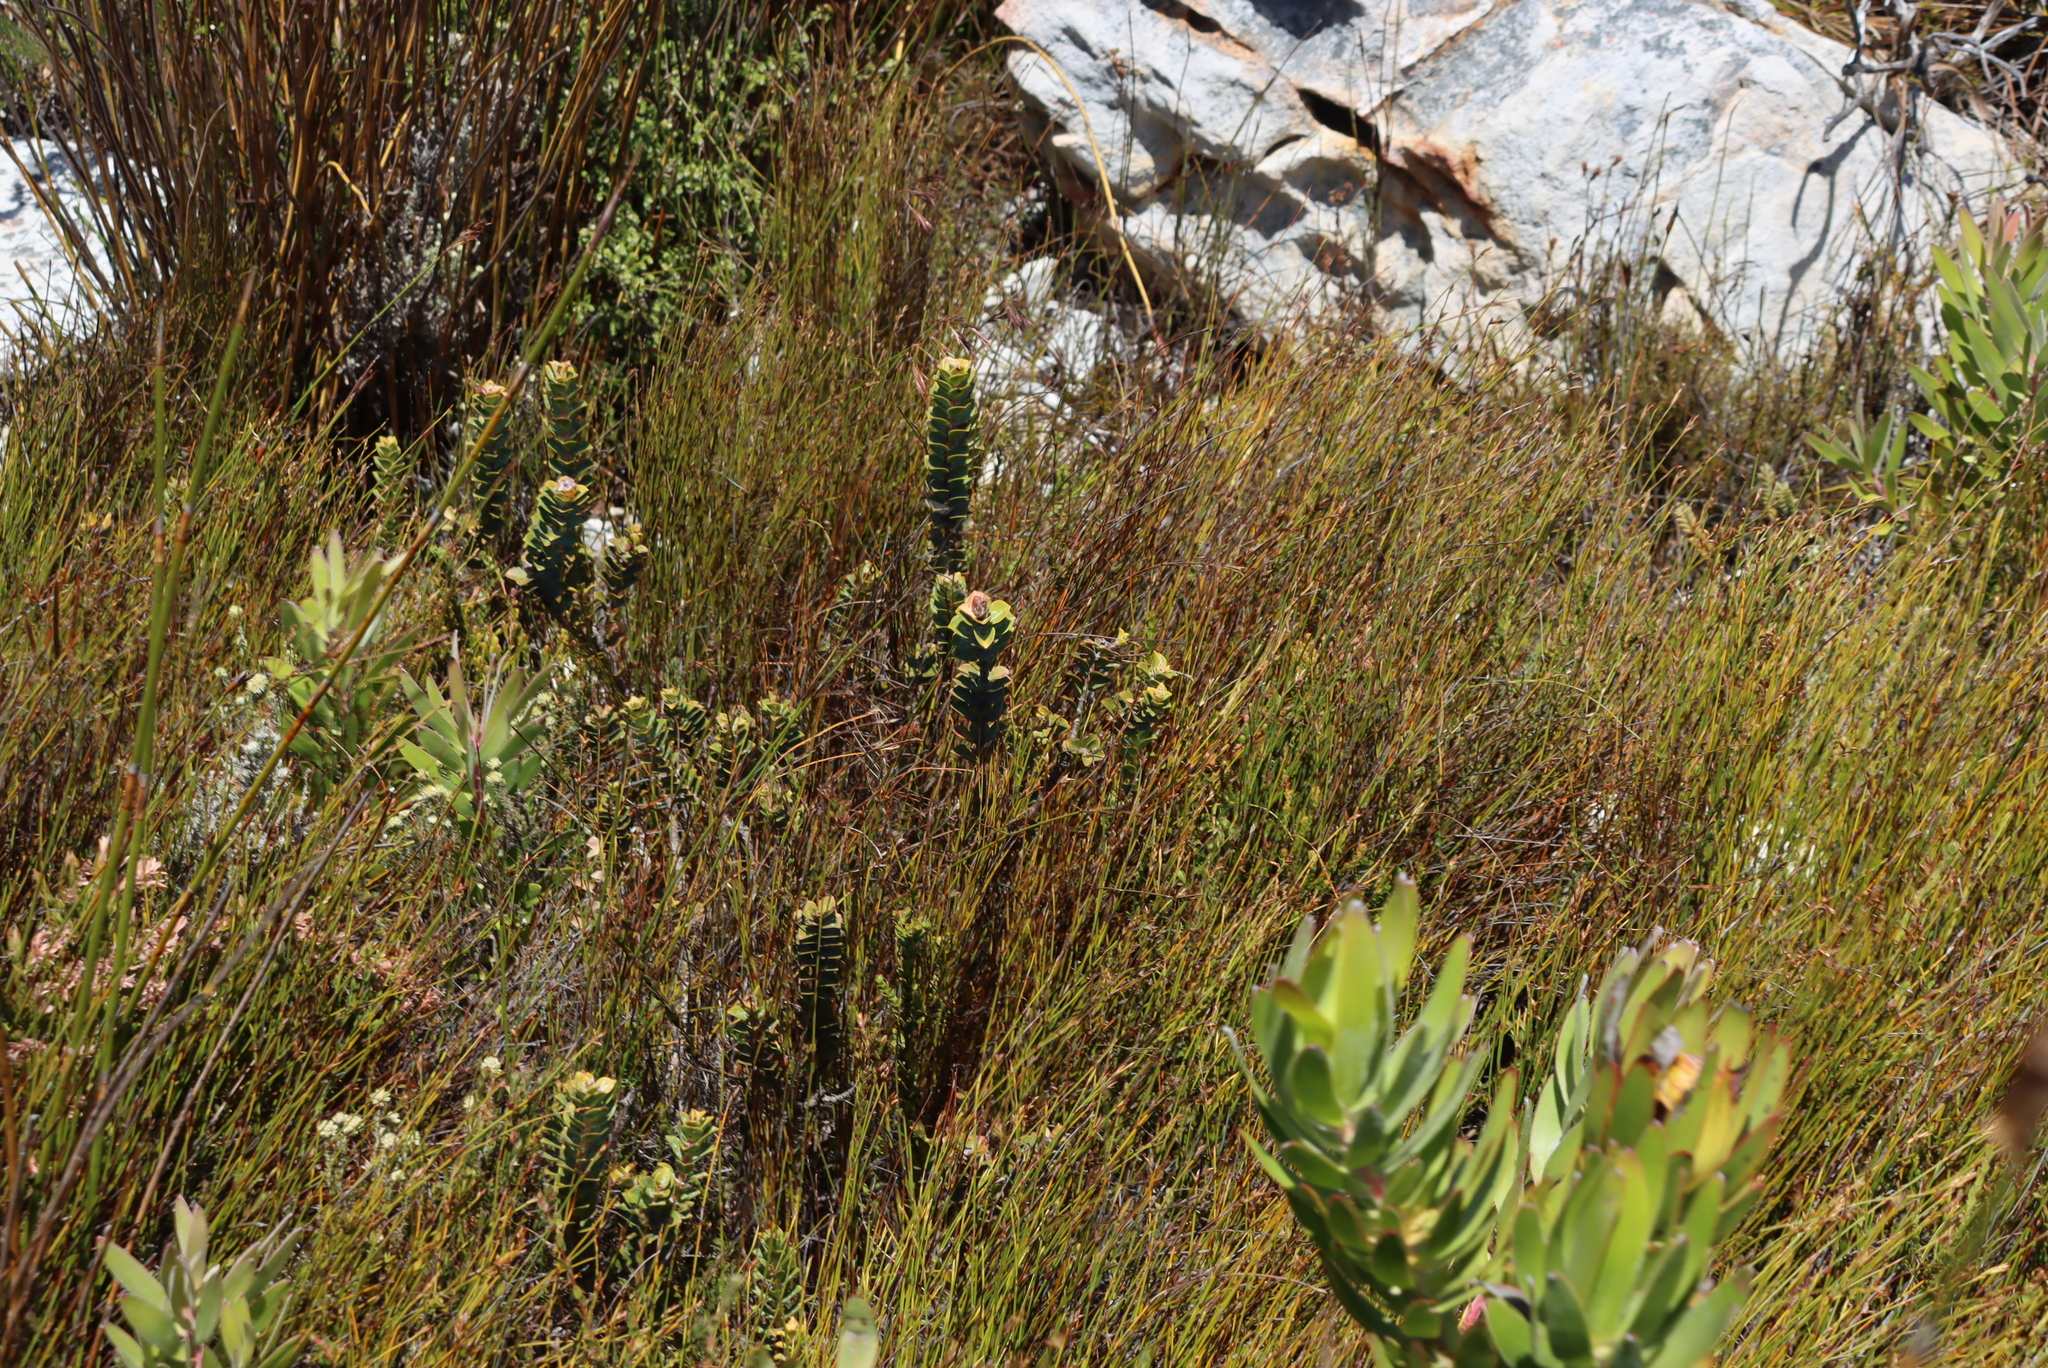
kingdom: Plantae
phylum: Tracheophyta
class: Magnoliopsida
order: Myrtales
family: Penaeaceae
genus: Saltera
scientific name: Saltera sarcocolla
